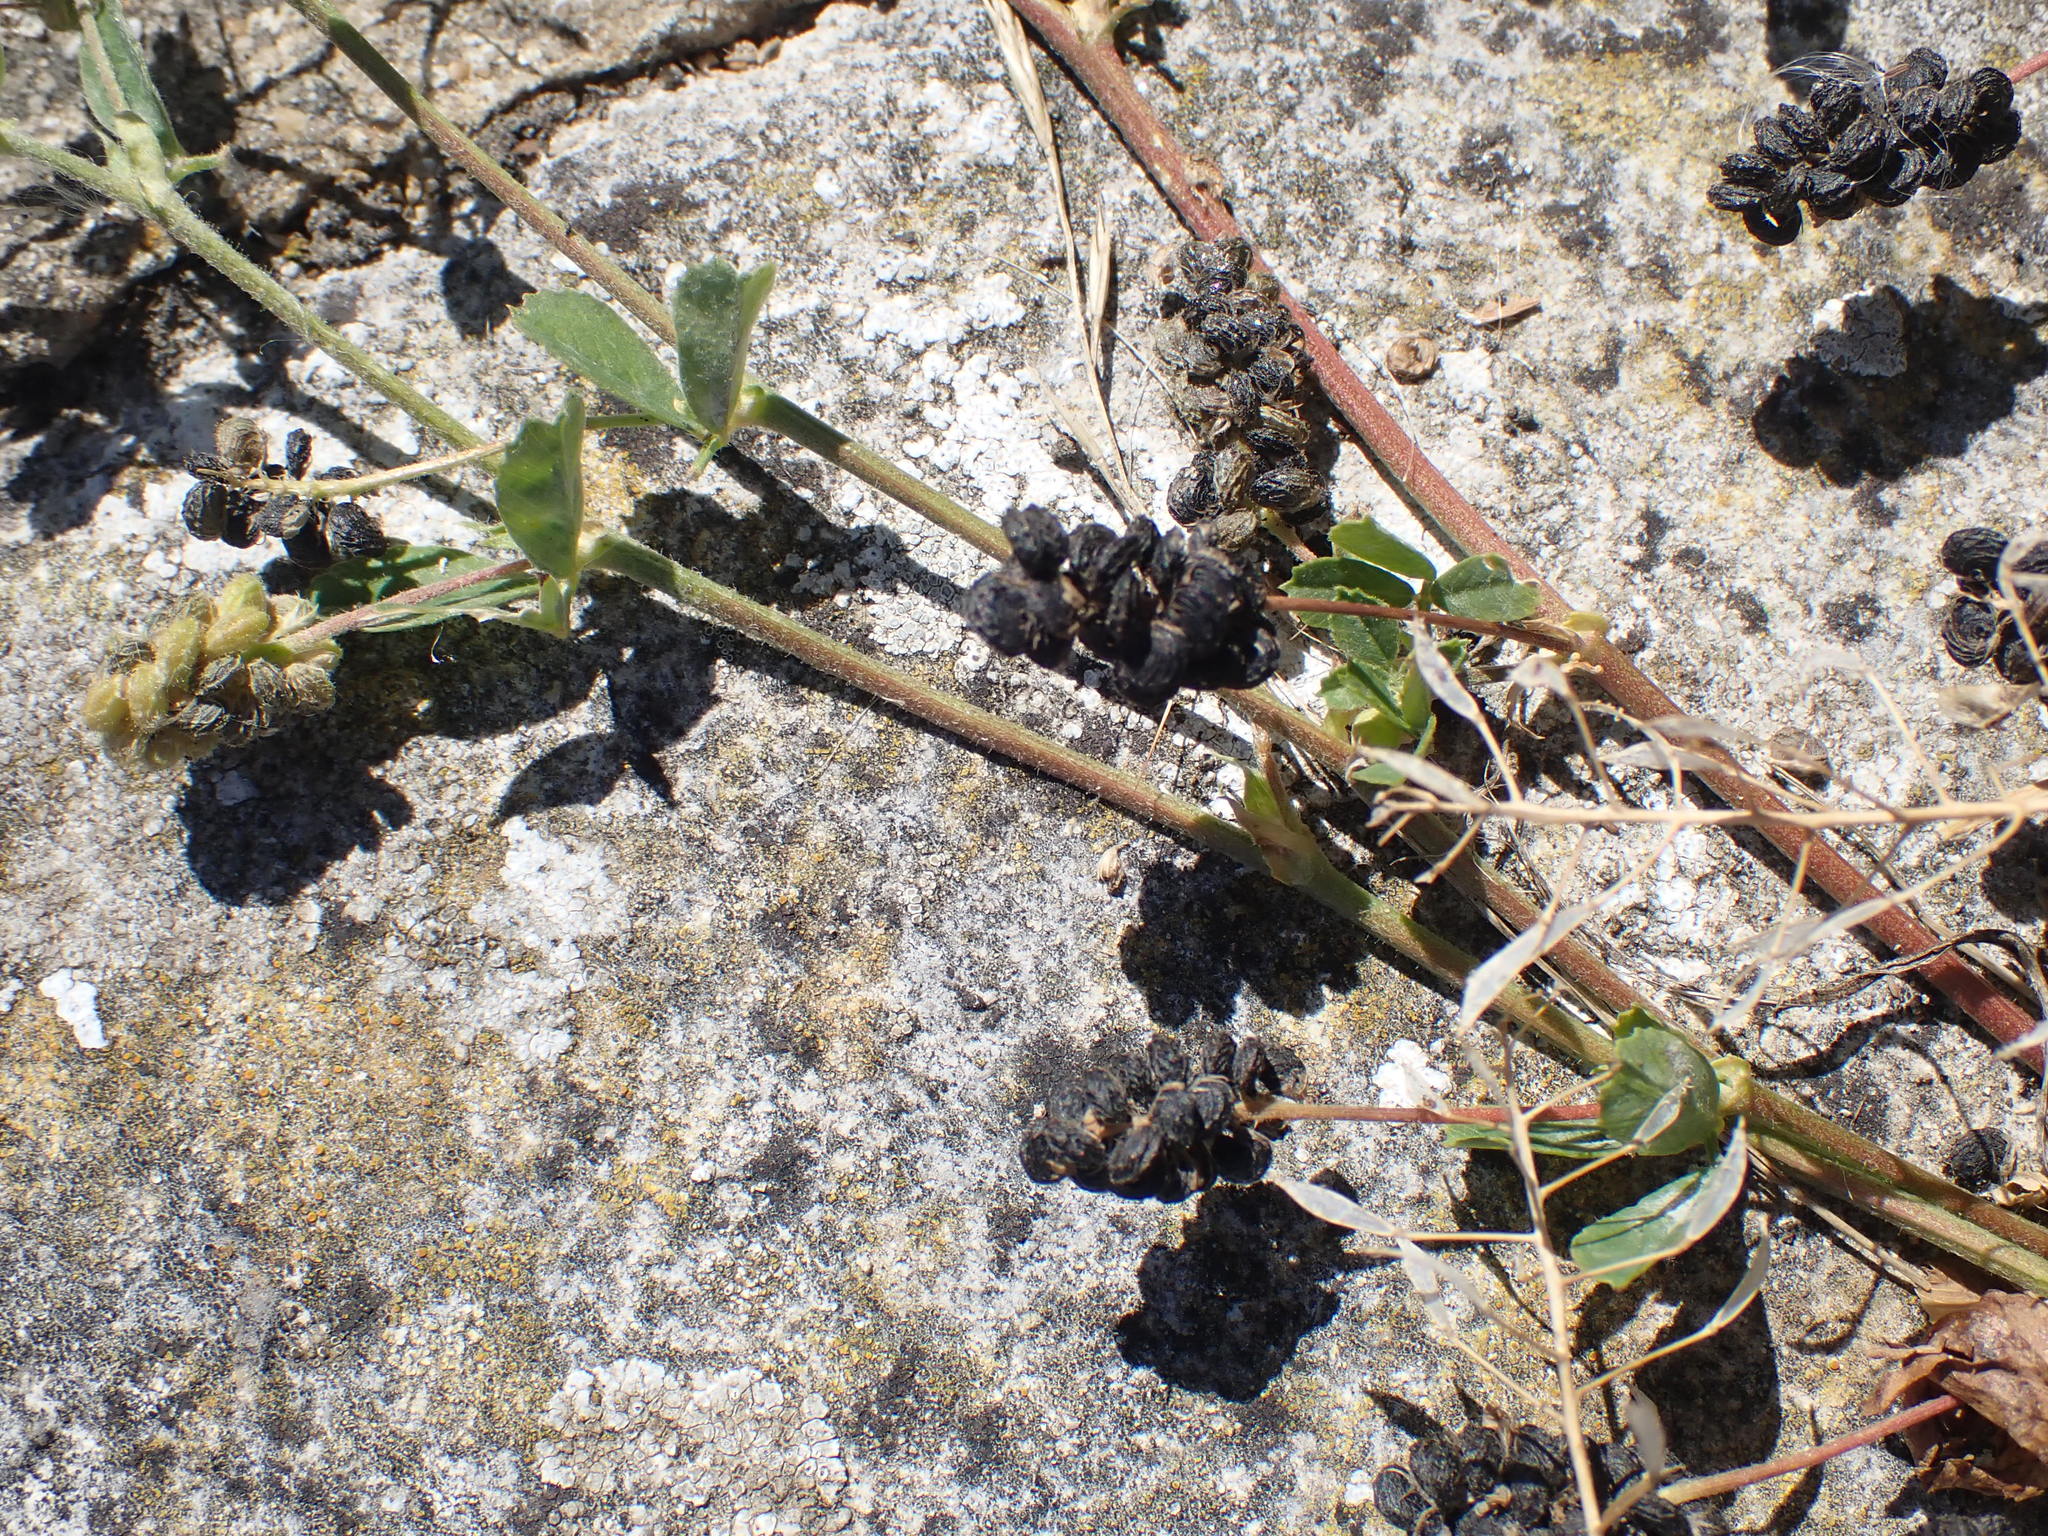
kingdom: Plantae
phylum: Tracheophyta
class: Magnoliopsida
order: Fabales
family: Fabaceae
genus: Medicago
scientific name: Medicago lupulina
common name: Black medick
